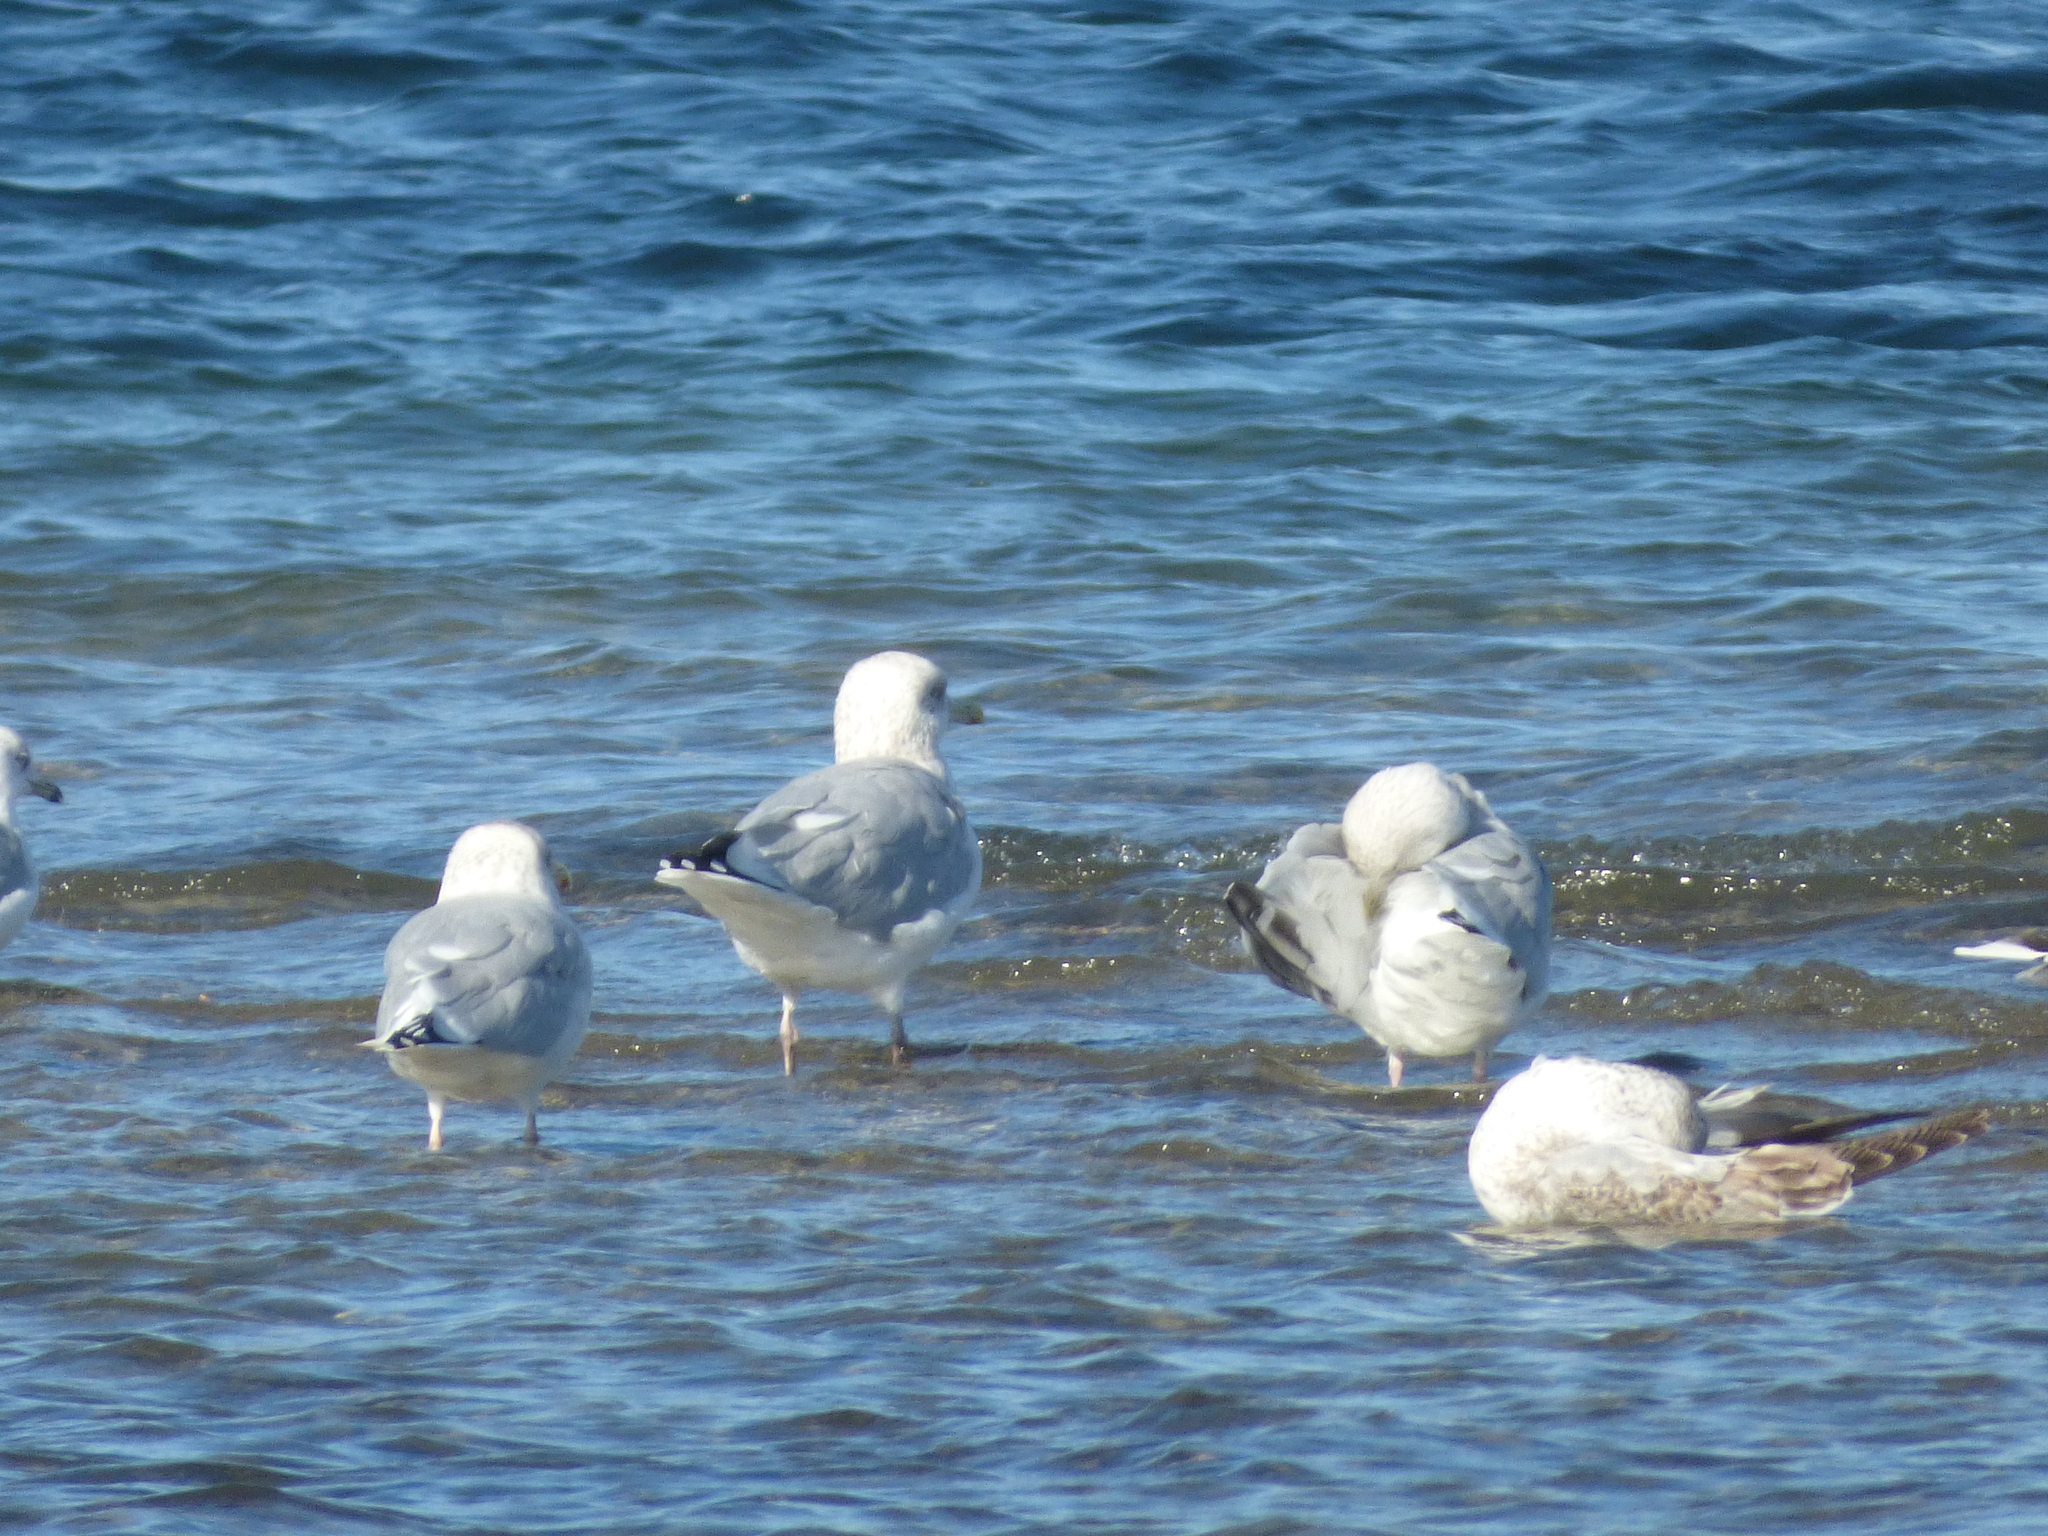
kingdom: Animalia
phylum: Chordata
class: Aves
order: Charadriiformes
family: Laridae
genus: Larus
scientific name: Larus argentatus
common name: Herring gull
